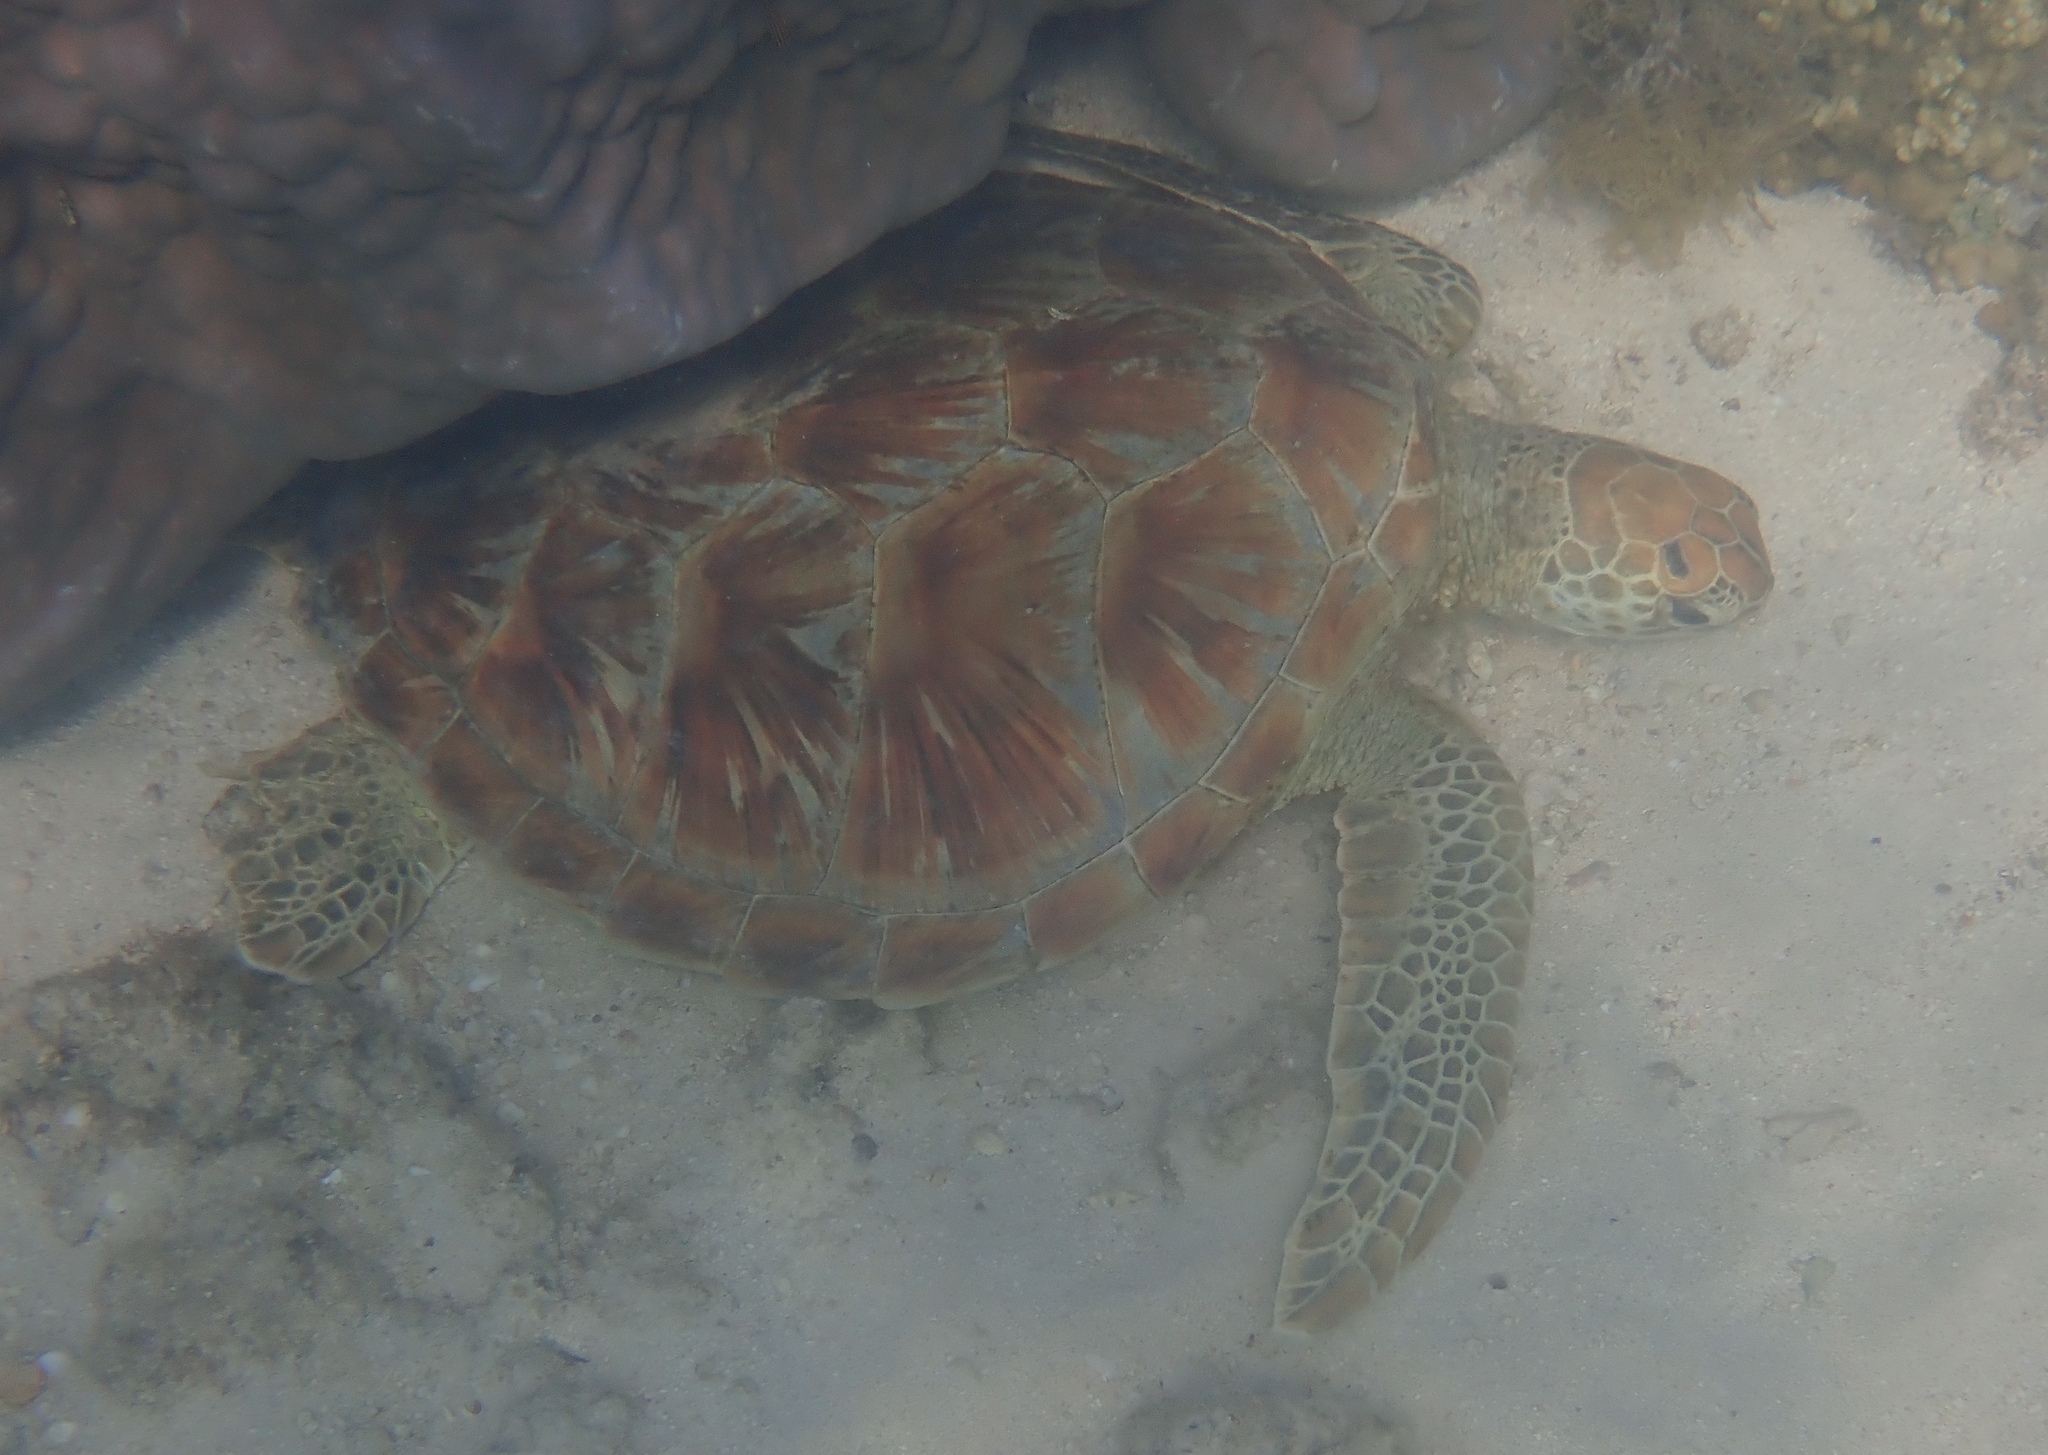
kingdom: Animalia
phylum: Chordata
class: Testudines
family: Cheloniidae
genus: Chelonia
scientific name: Chelonia mydas
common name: Green turtle
